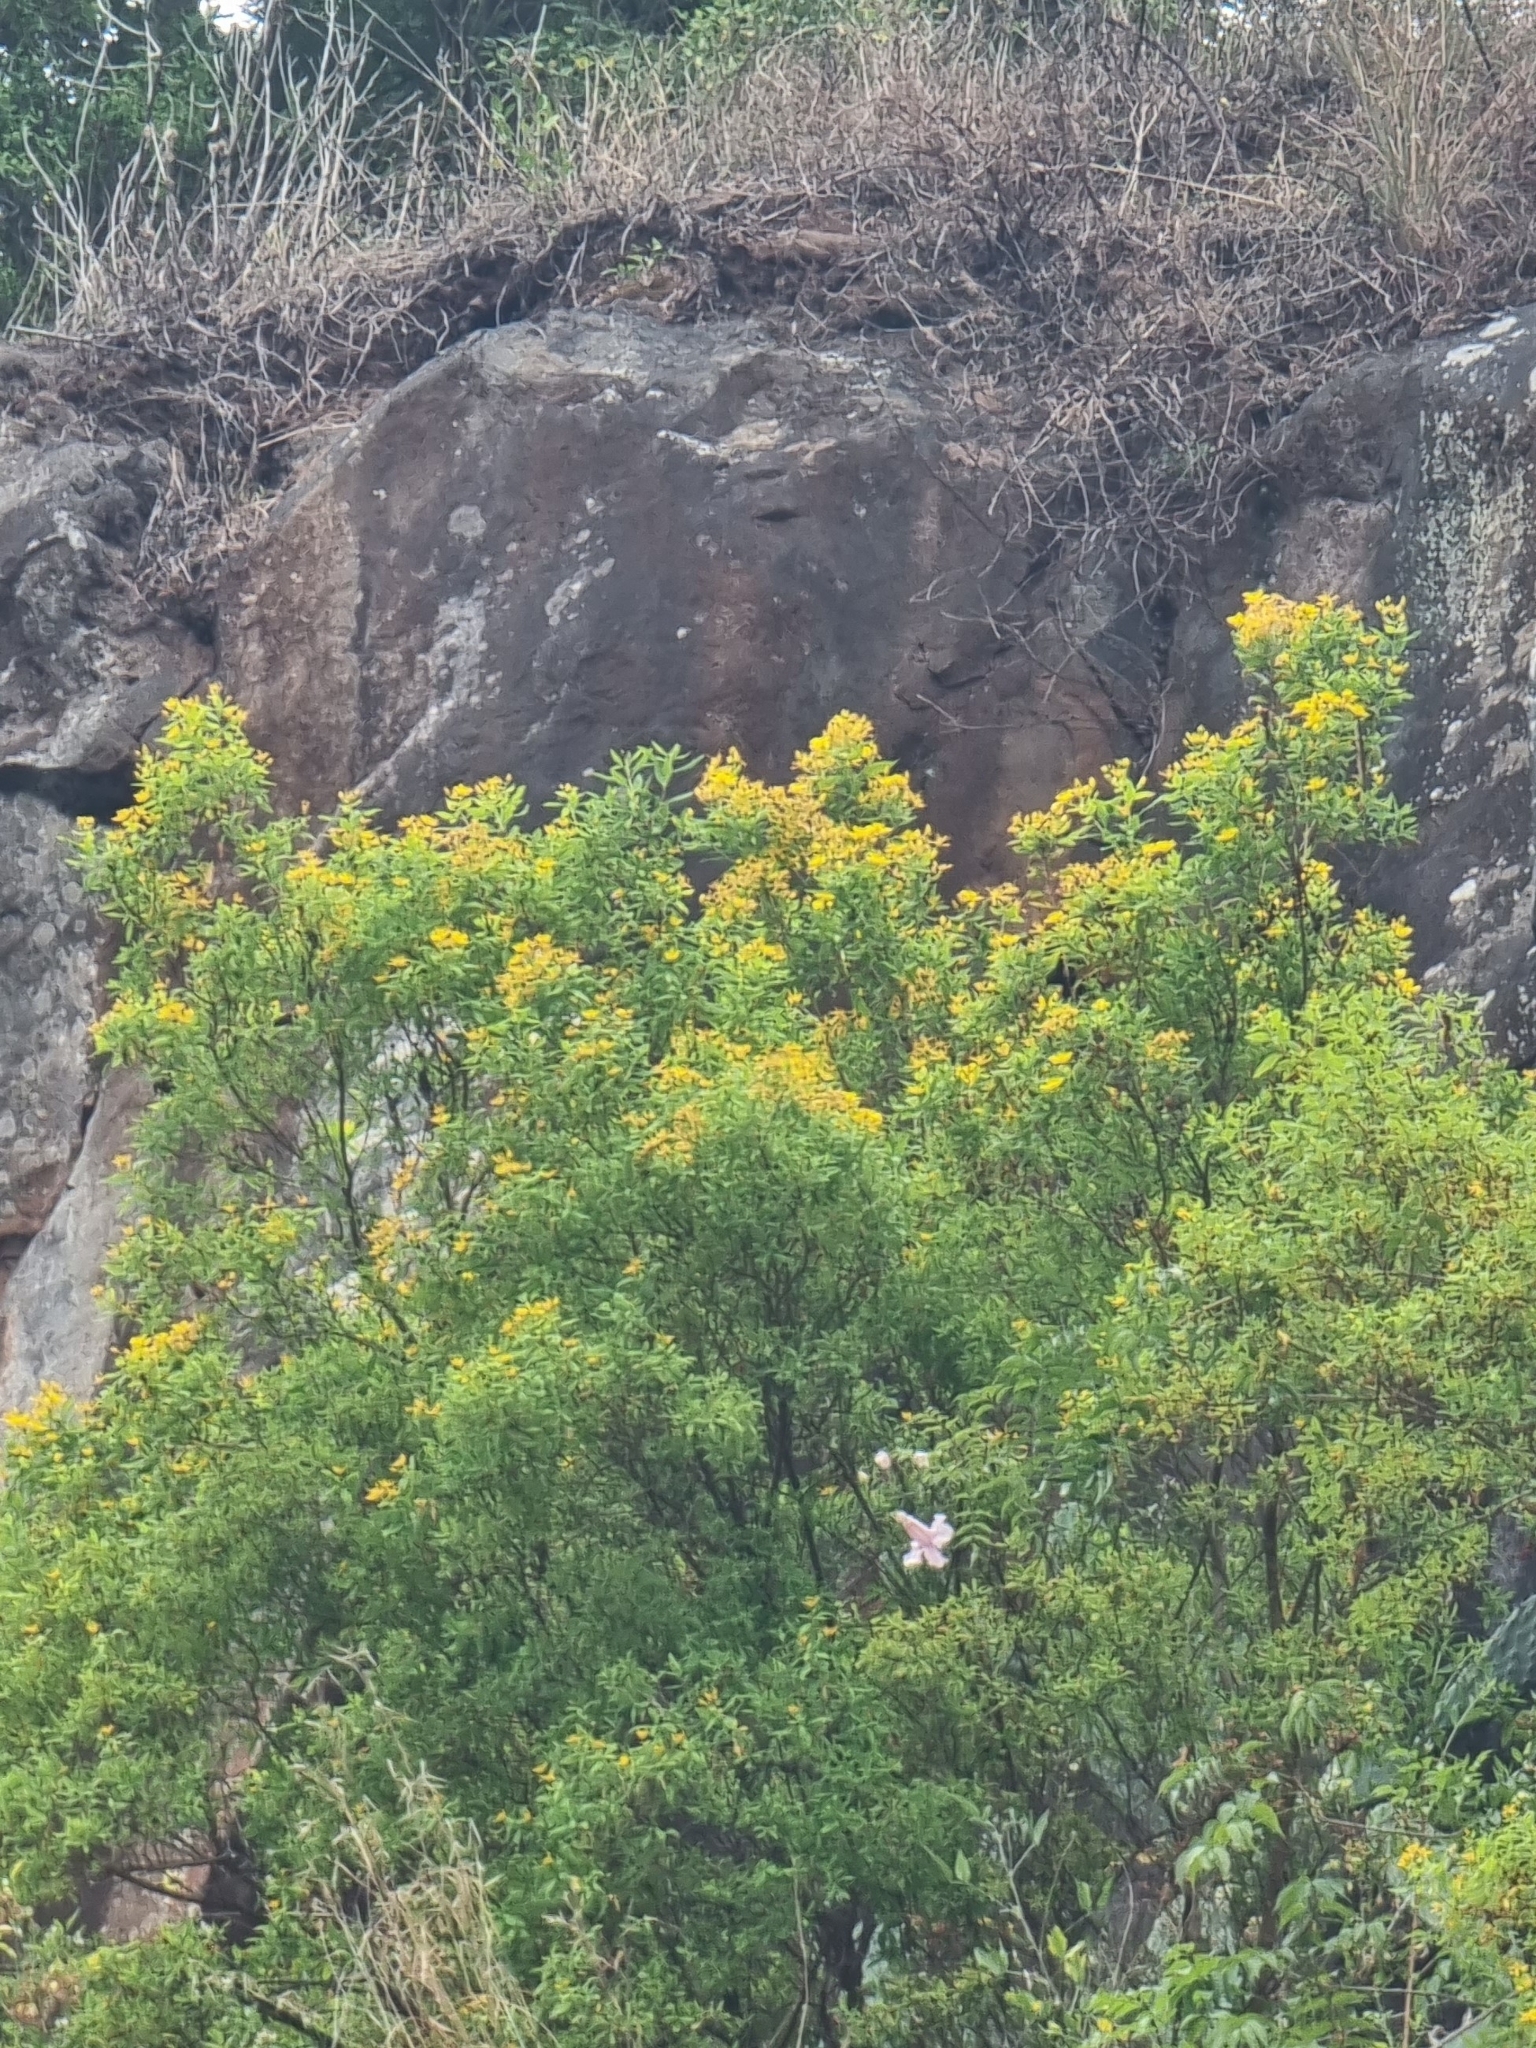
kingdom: Plantae
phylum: Tracheophyta
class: Magnoliopsida
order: Malpighiales
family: Hypericaceae
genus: Hypericum
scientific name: Hypericum canariense
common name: Canary island st. johnswort
